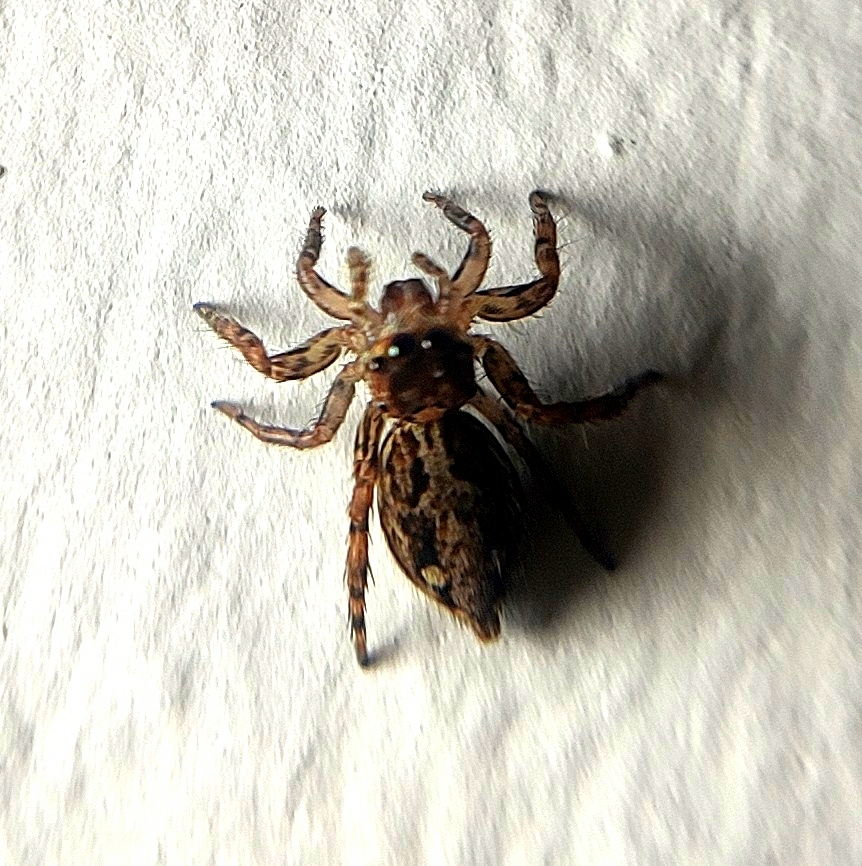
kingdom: Animalia
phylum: Arthropoda
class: Arachnida
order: Araneae
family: Salticidae
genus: Plexippus
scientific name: Plexippus paykulli
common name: Pantropical jumper
